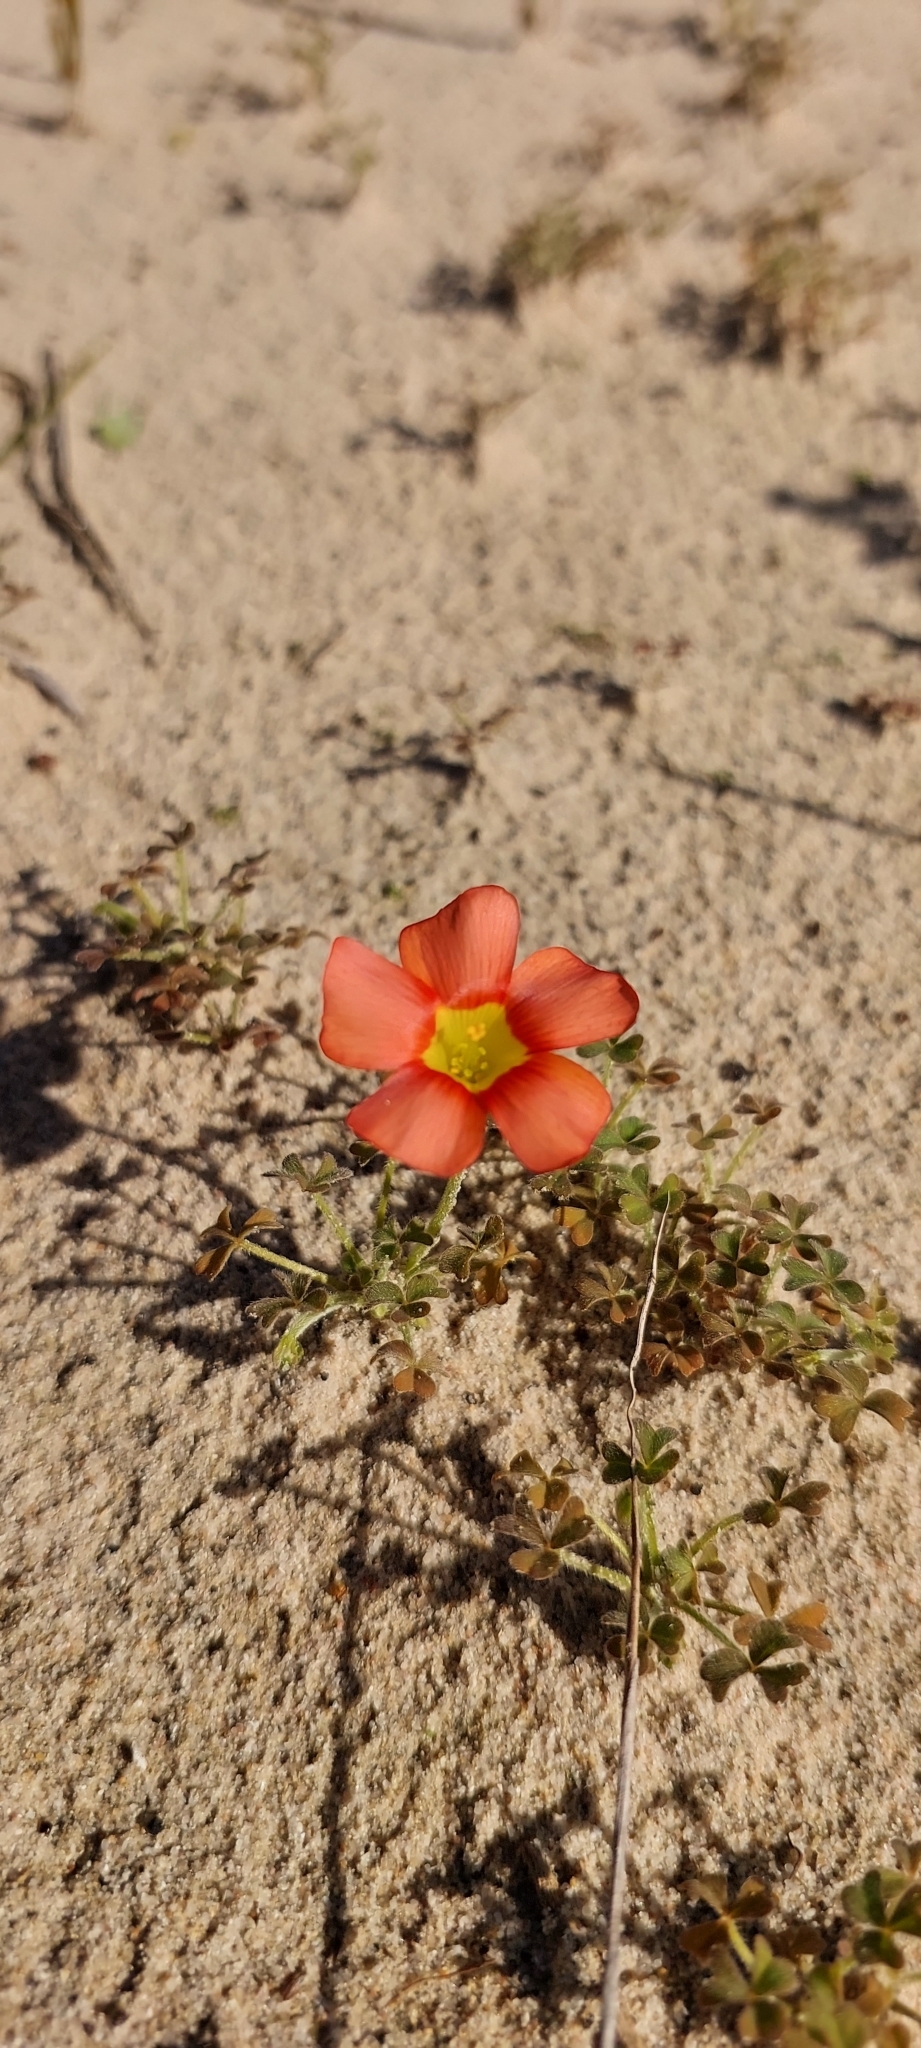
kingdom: Plantae
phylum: Tracheophyta
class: Magnoliopsida
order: Oxalidales
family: Oxalidaceae
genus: Oxalis
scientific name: Oxalis obtusa
